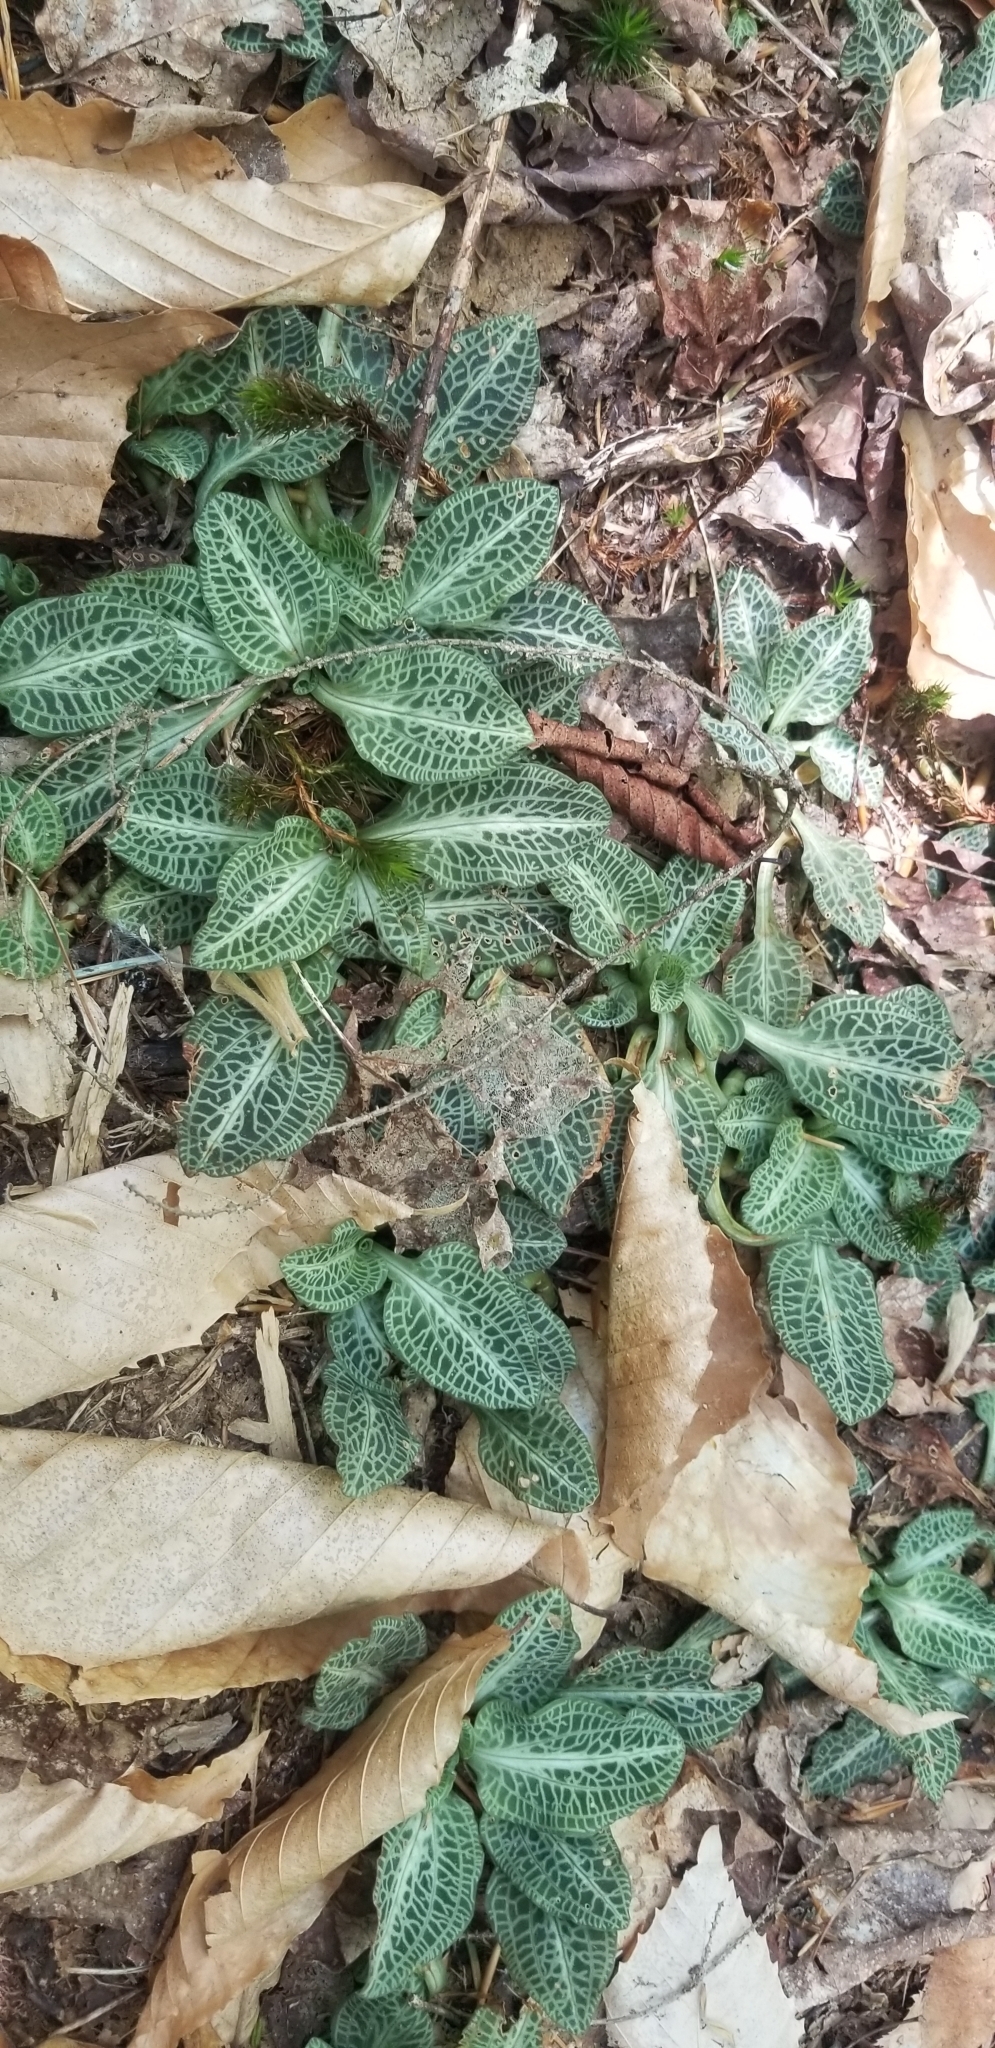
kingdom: Plantae
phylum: Tracheophyta
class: Liliopsida
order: Asparagales
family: Orchidaceae
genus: Goodyera
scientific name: Goodyera pubescens
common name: Downy rattlesnake-plantain
